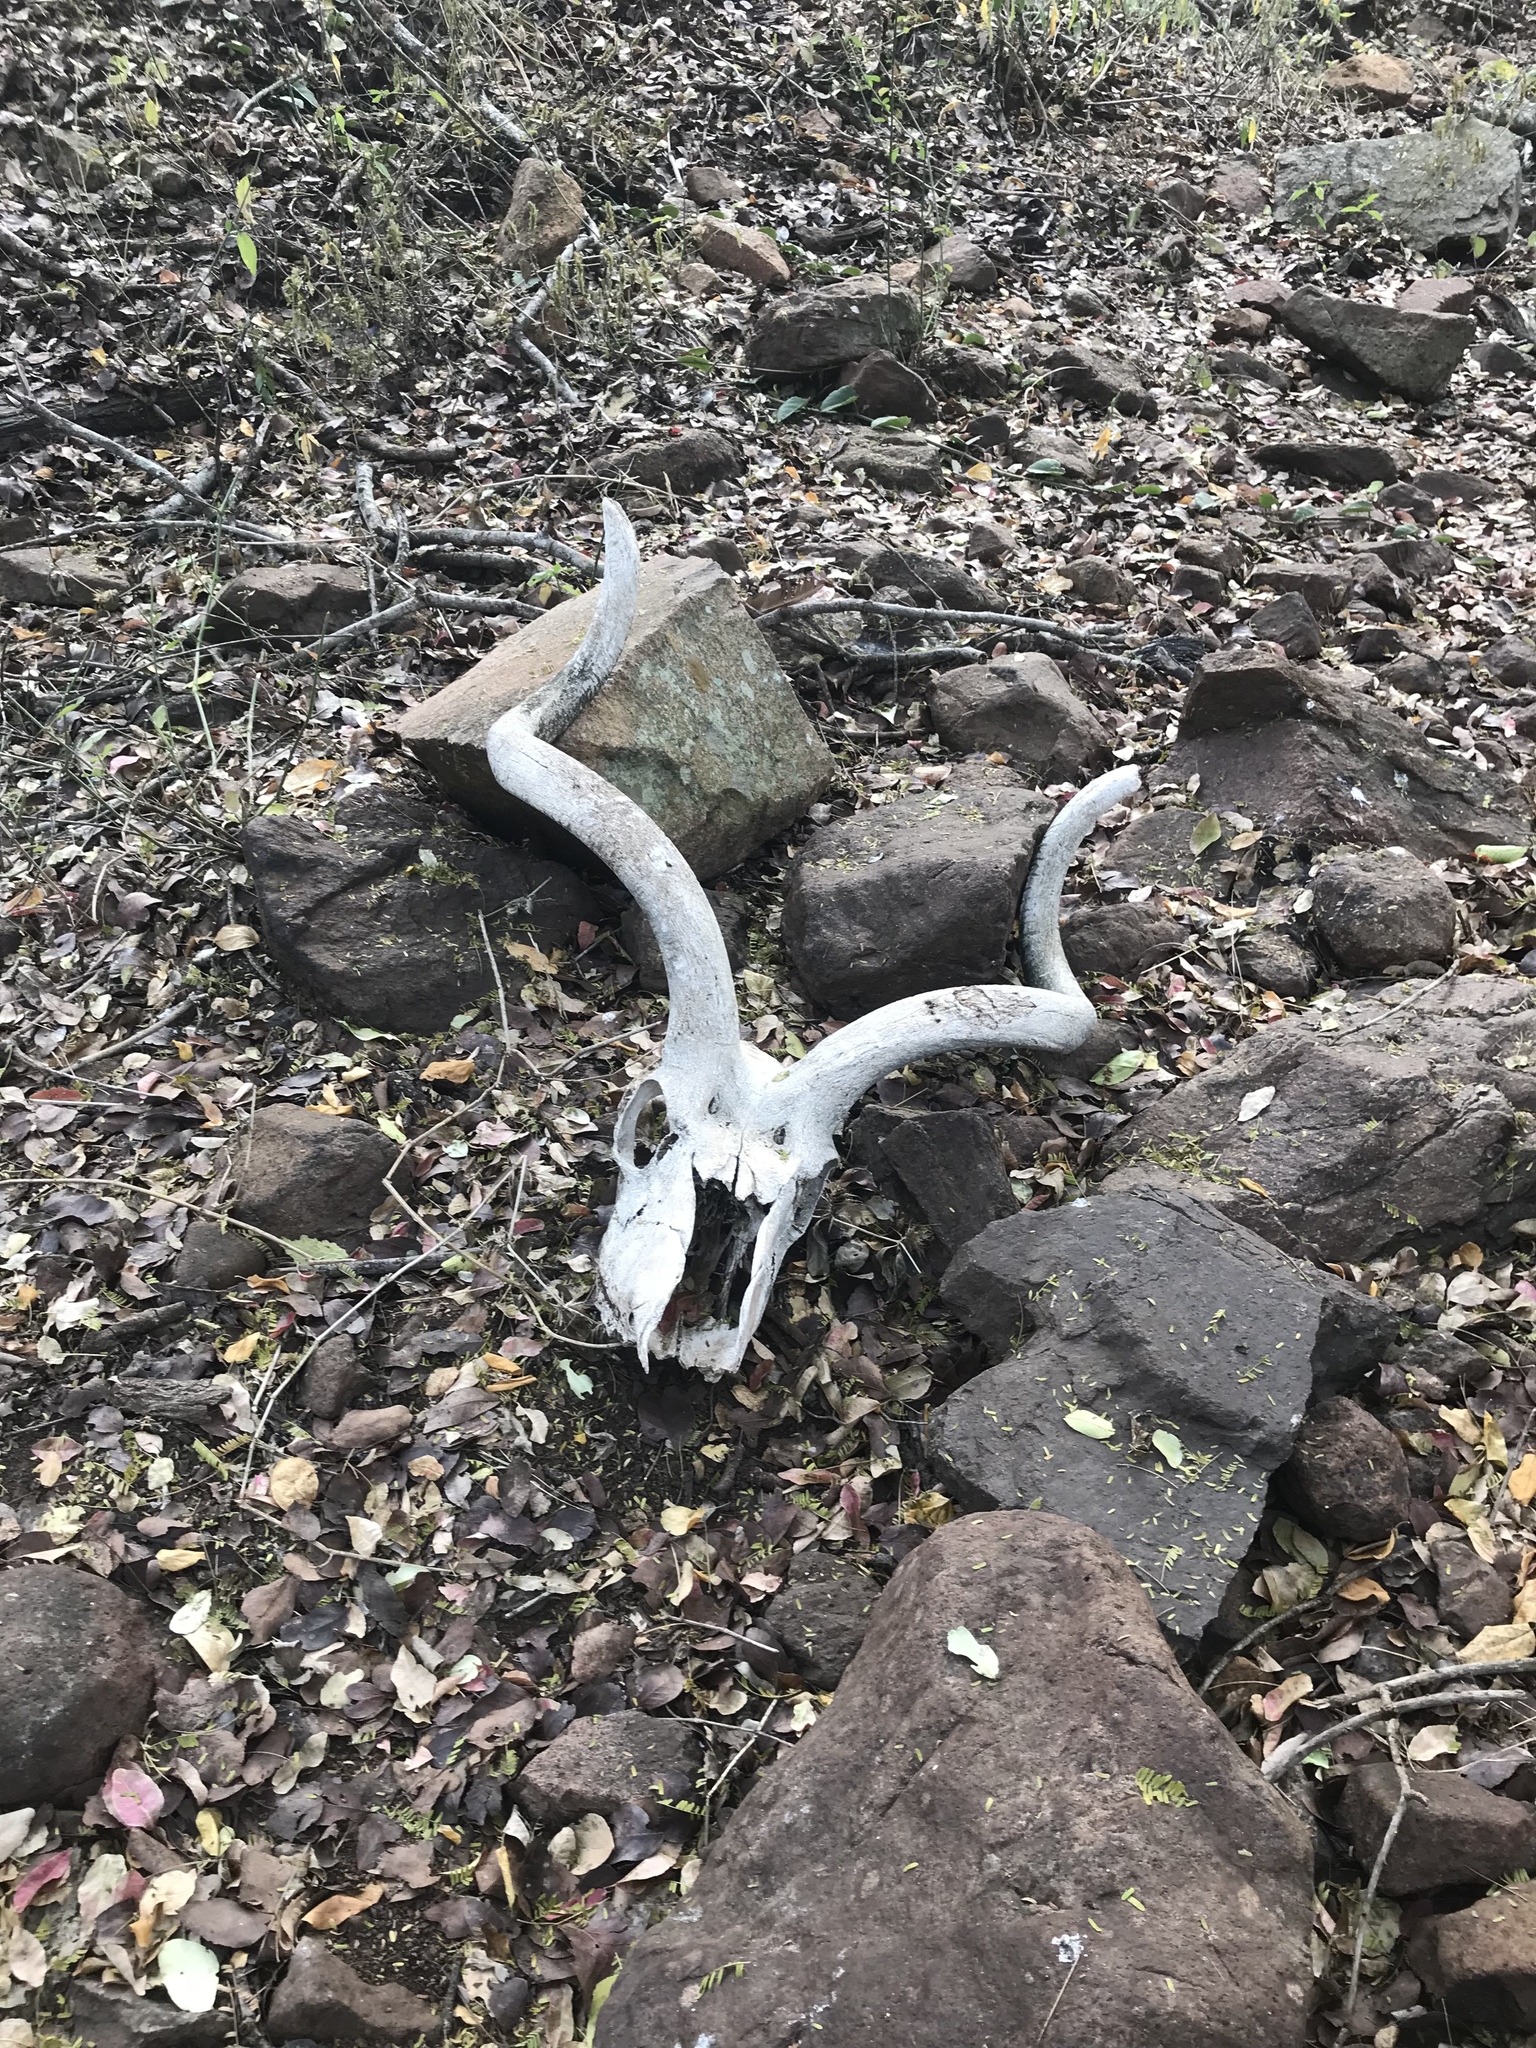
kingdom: Animalia
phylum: Chordata
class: Mammalia
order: Artiodactyla
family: Bovidae
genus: Tragelaphus
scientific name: Tragelaphus strepsiceros
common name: Greater kudu
